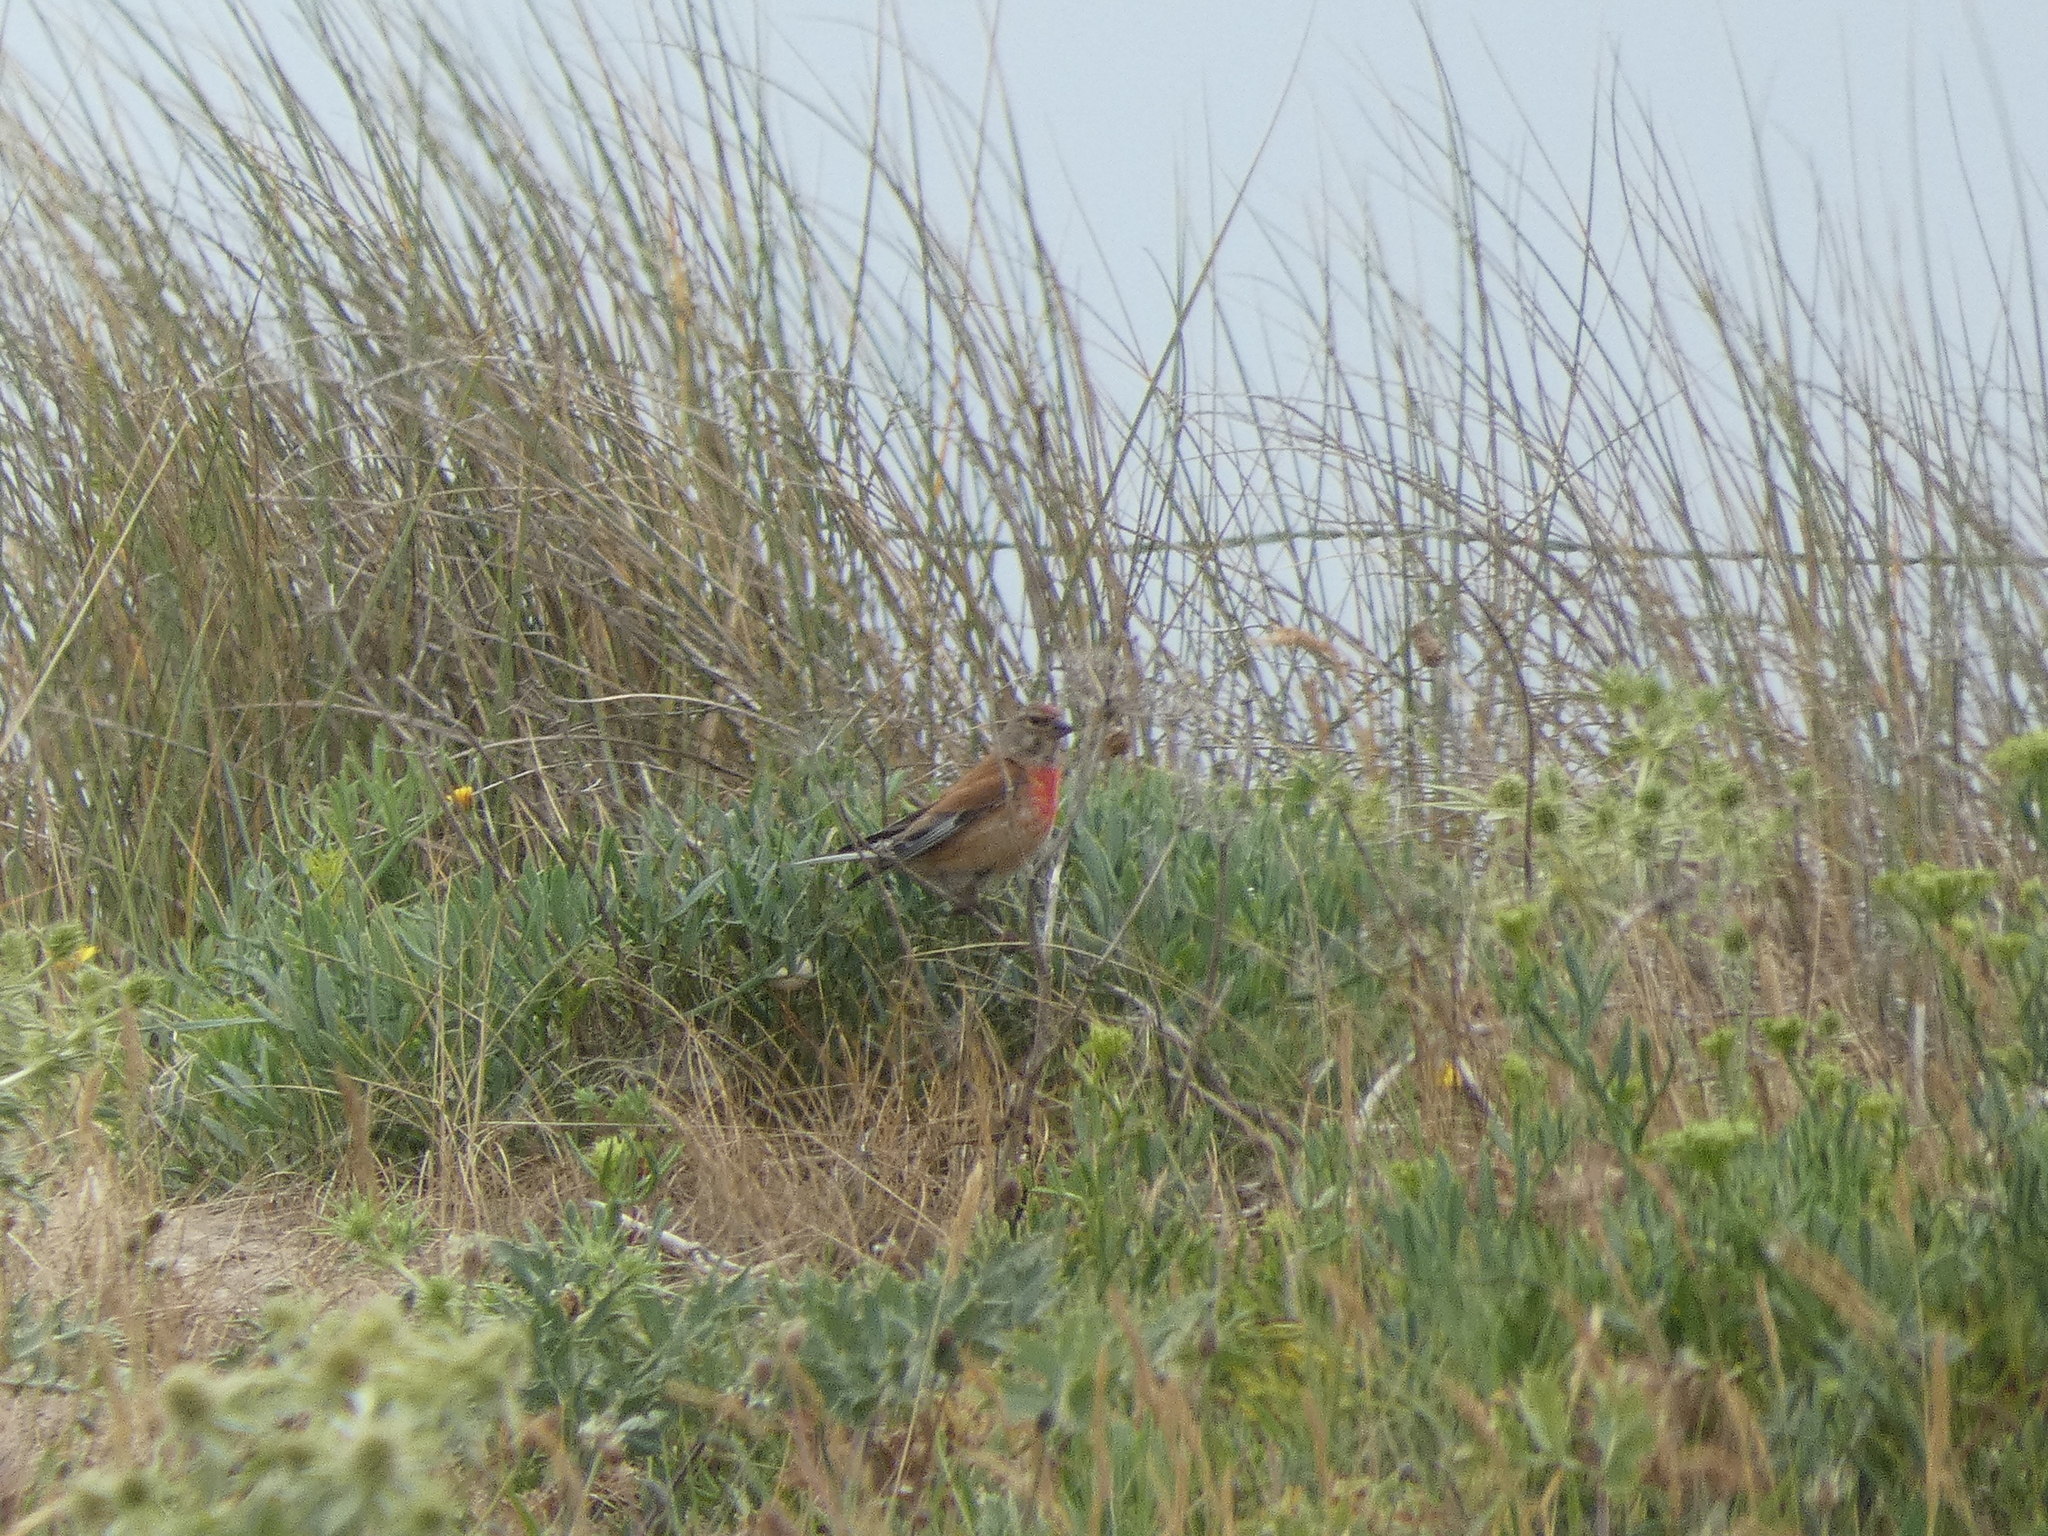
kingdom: Animalia
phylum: Chordata
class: Aves
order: Passeriformes
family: Fringillidae
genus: Linaria
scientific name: Linaria cannabina
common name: Common linnet
